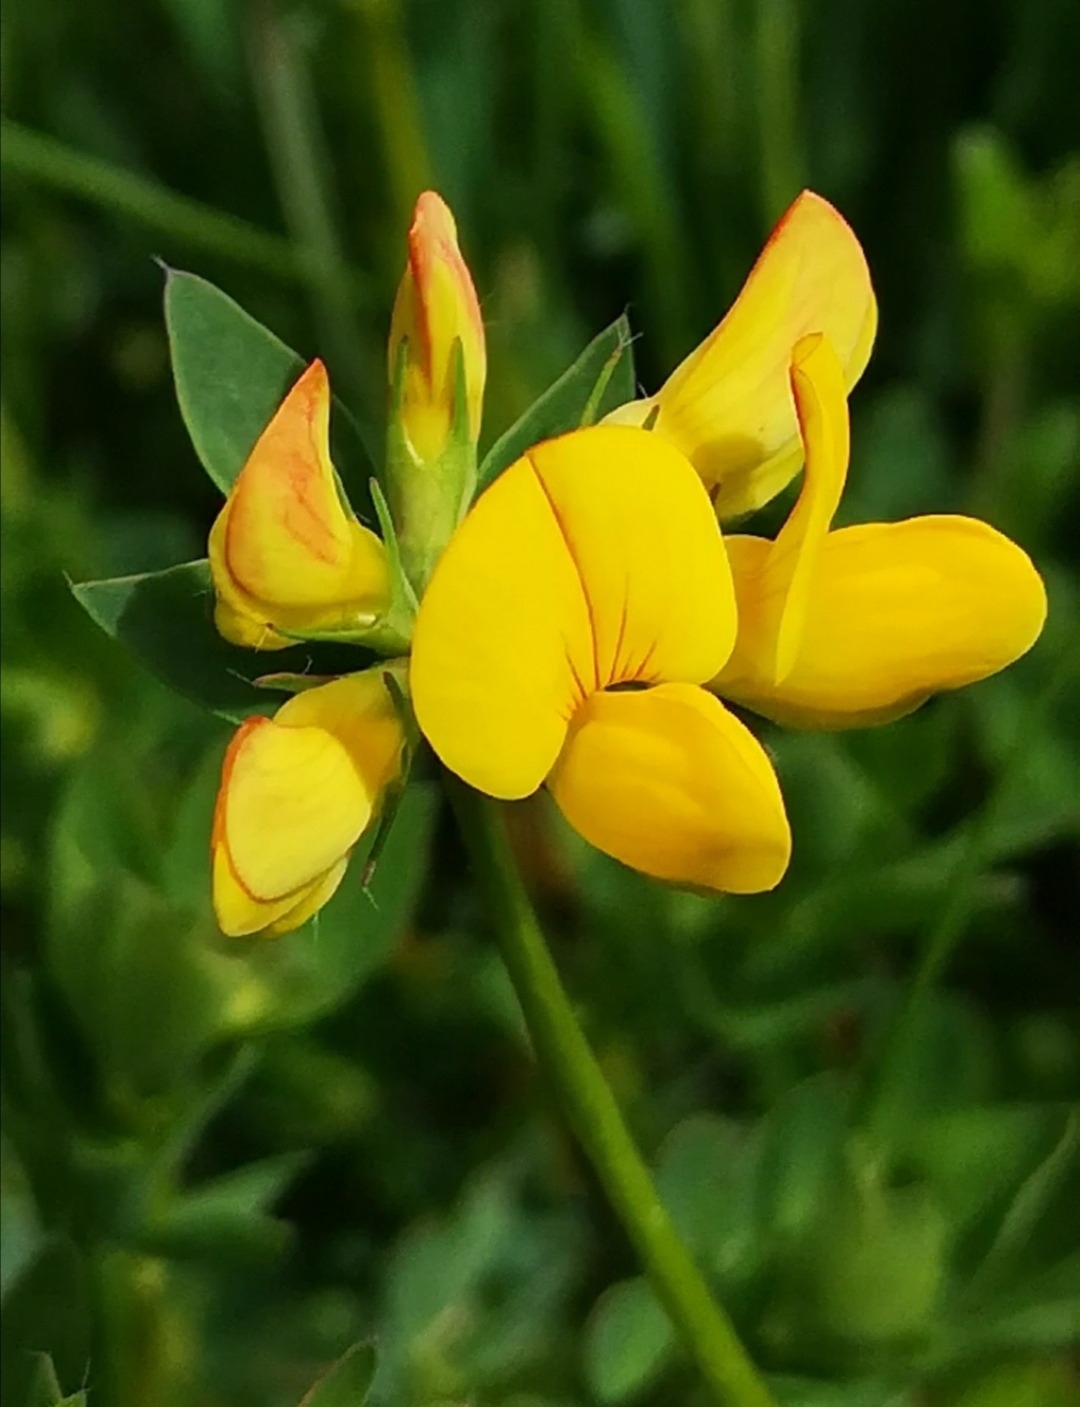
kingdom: Plantae
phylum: Tracheophyta
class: Magnoliopsida
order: Fabales
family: Fabaceae
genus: Lotus
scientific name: Lotus corniculatus
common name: Common bird's-foot-trefoil
